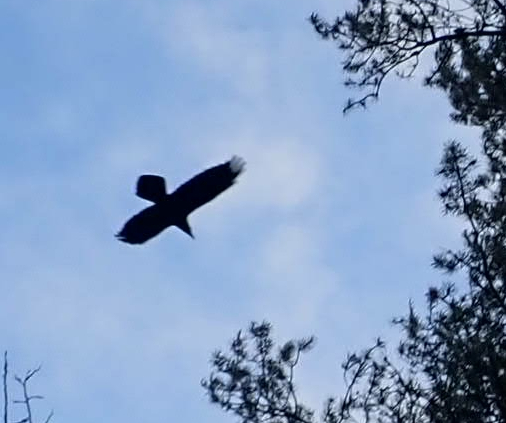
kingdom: Animalia
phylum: Chordata
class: Aves
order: Passeriformes
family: Corvidae
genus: Corvus
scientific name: Corvus corax
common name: Common raven
